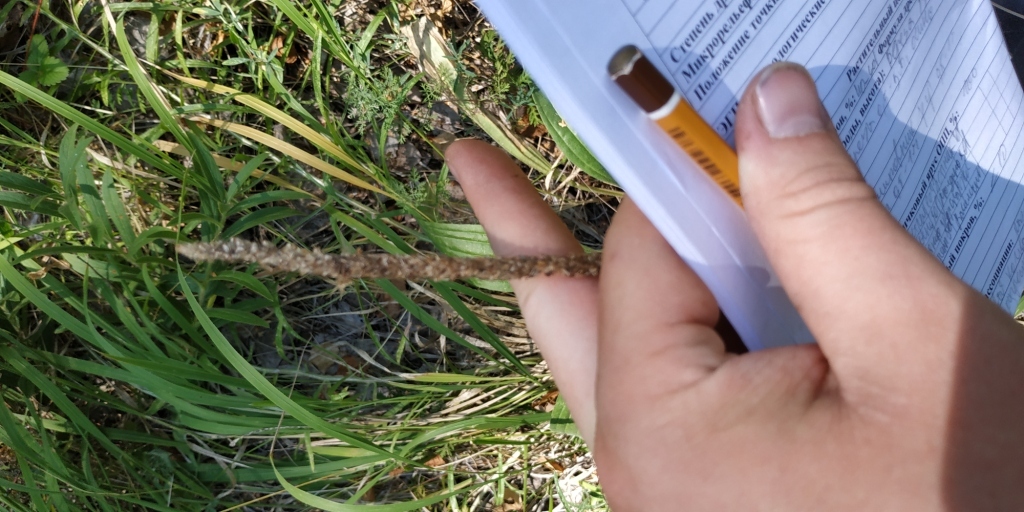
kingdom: Plantae
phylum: Tracheophyta
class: Magnoliopsida
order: Lamiales
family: Plantaginaceae
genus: Plantago
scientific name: Plantago urvillei
